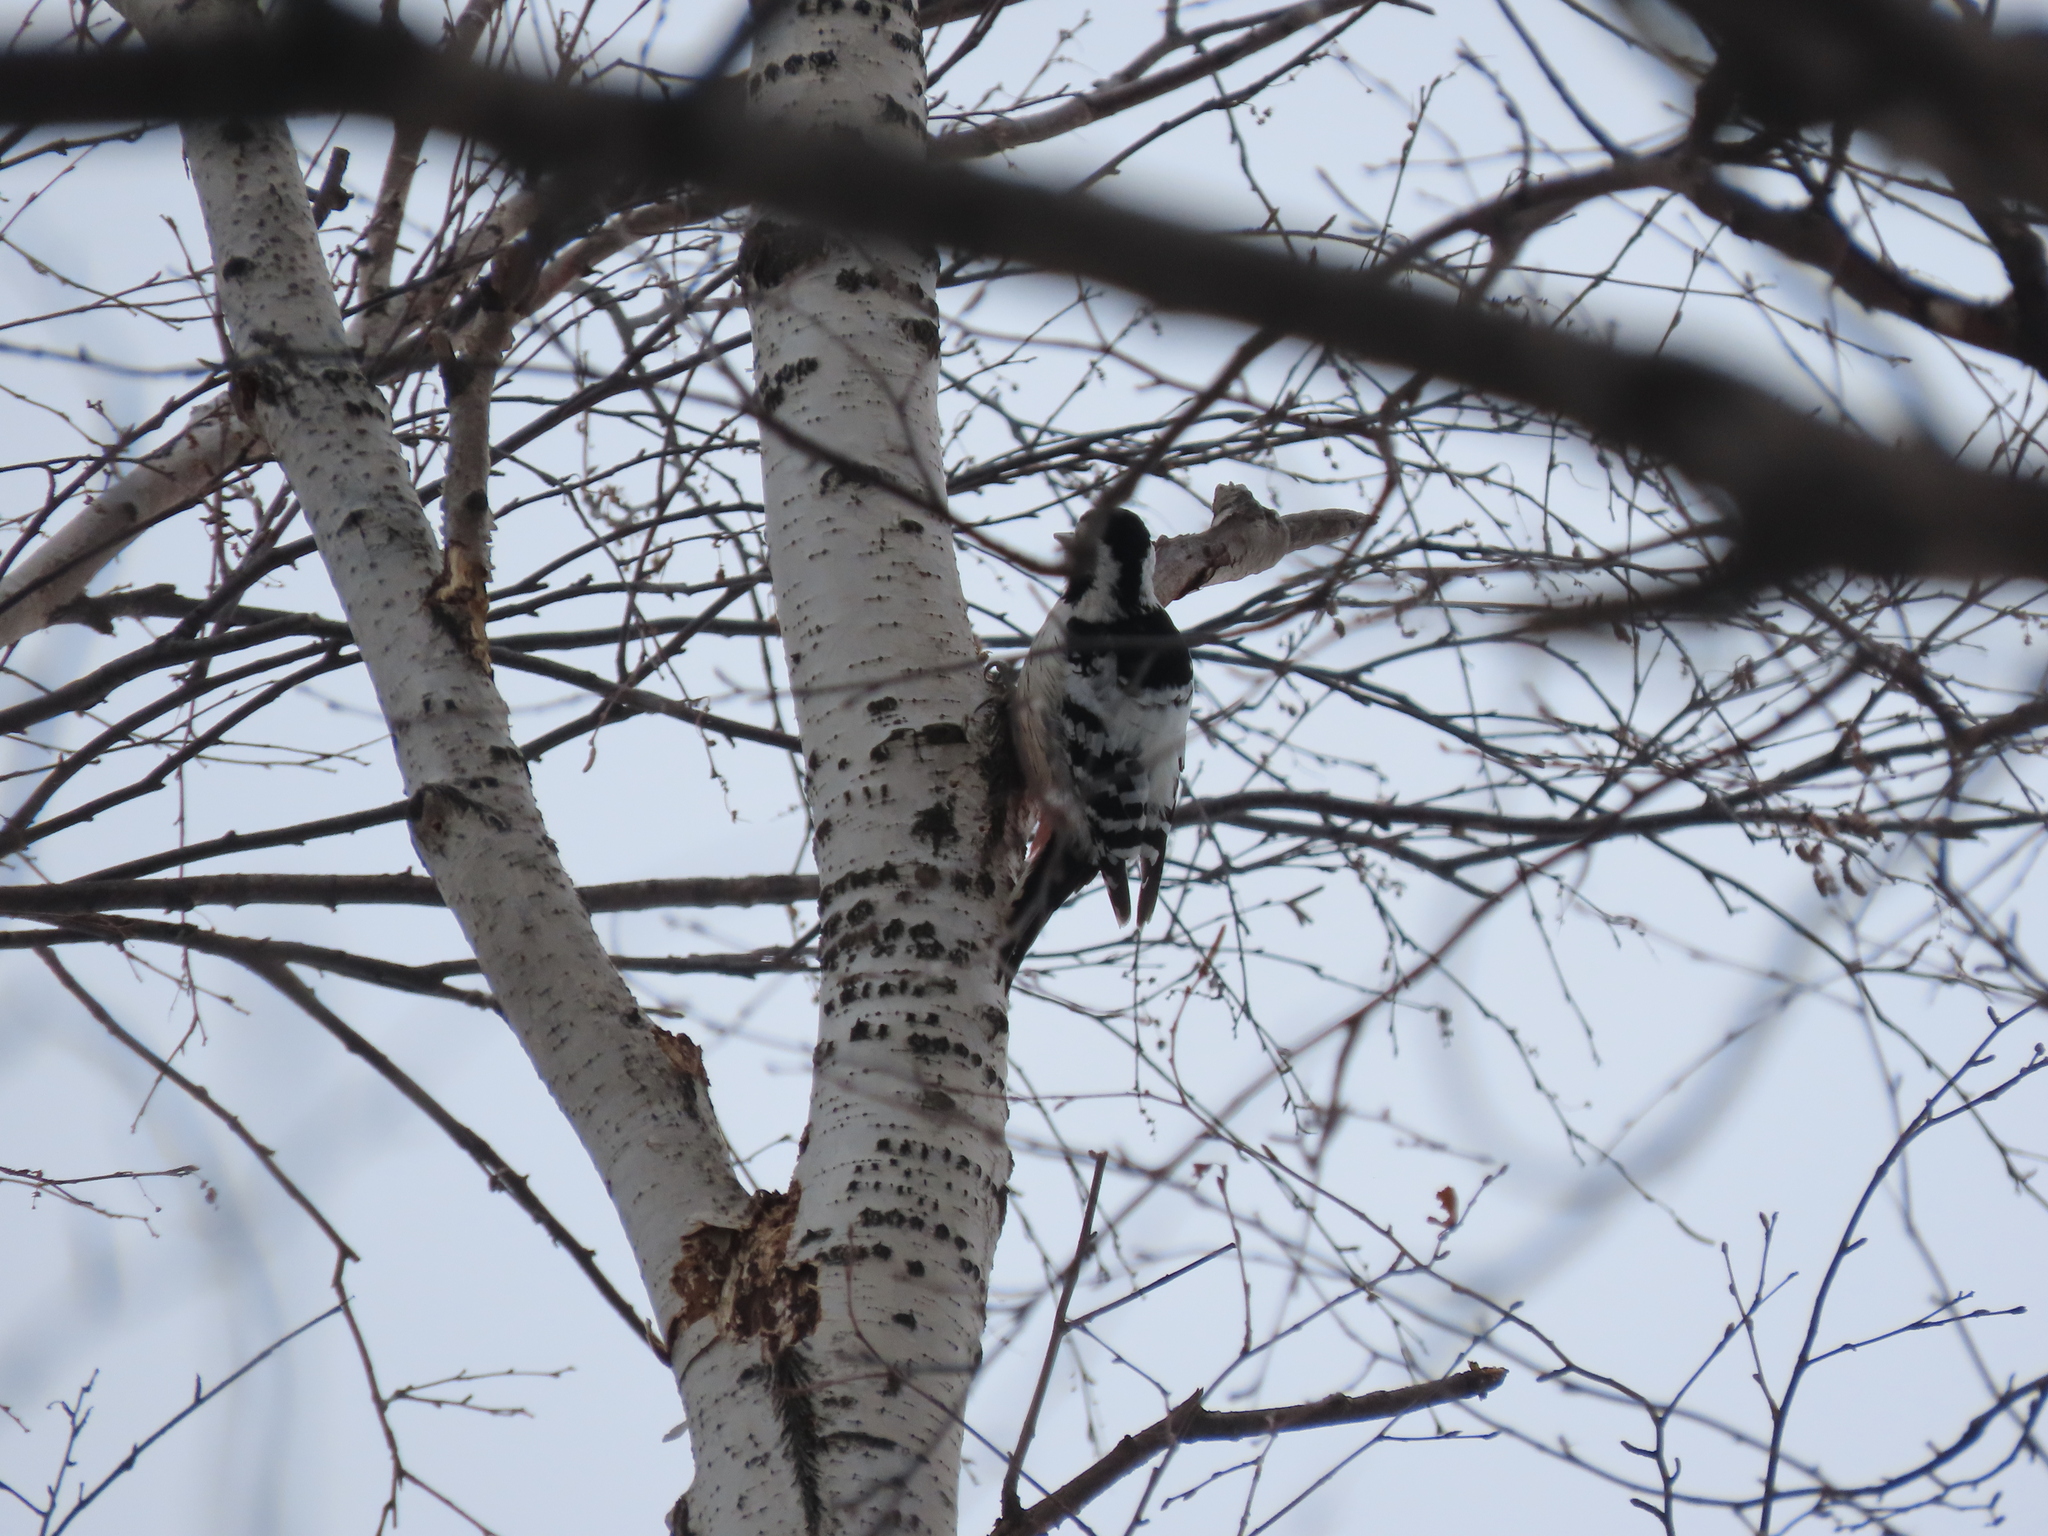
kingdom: Animalia
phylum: Chordata
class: Aves
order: Piciformes
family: Picidae
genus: Dendrocopos
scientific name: Dendrocopos leucotos
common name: White-backed woodpecker
